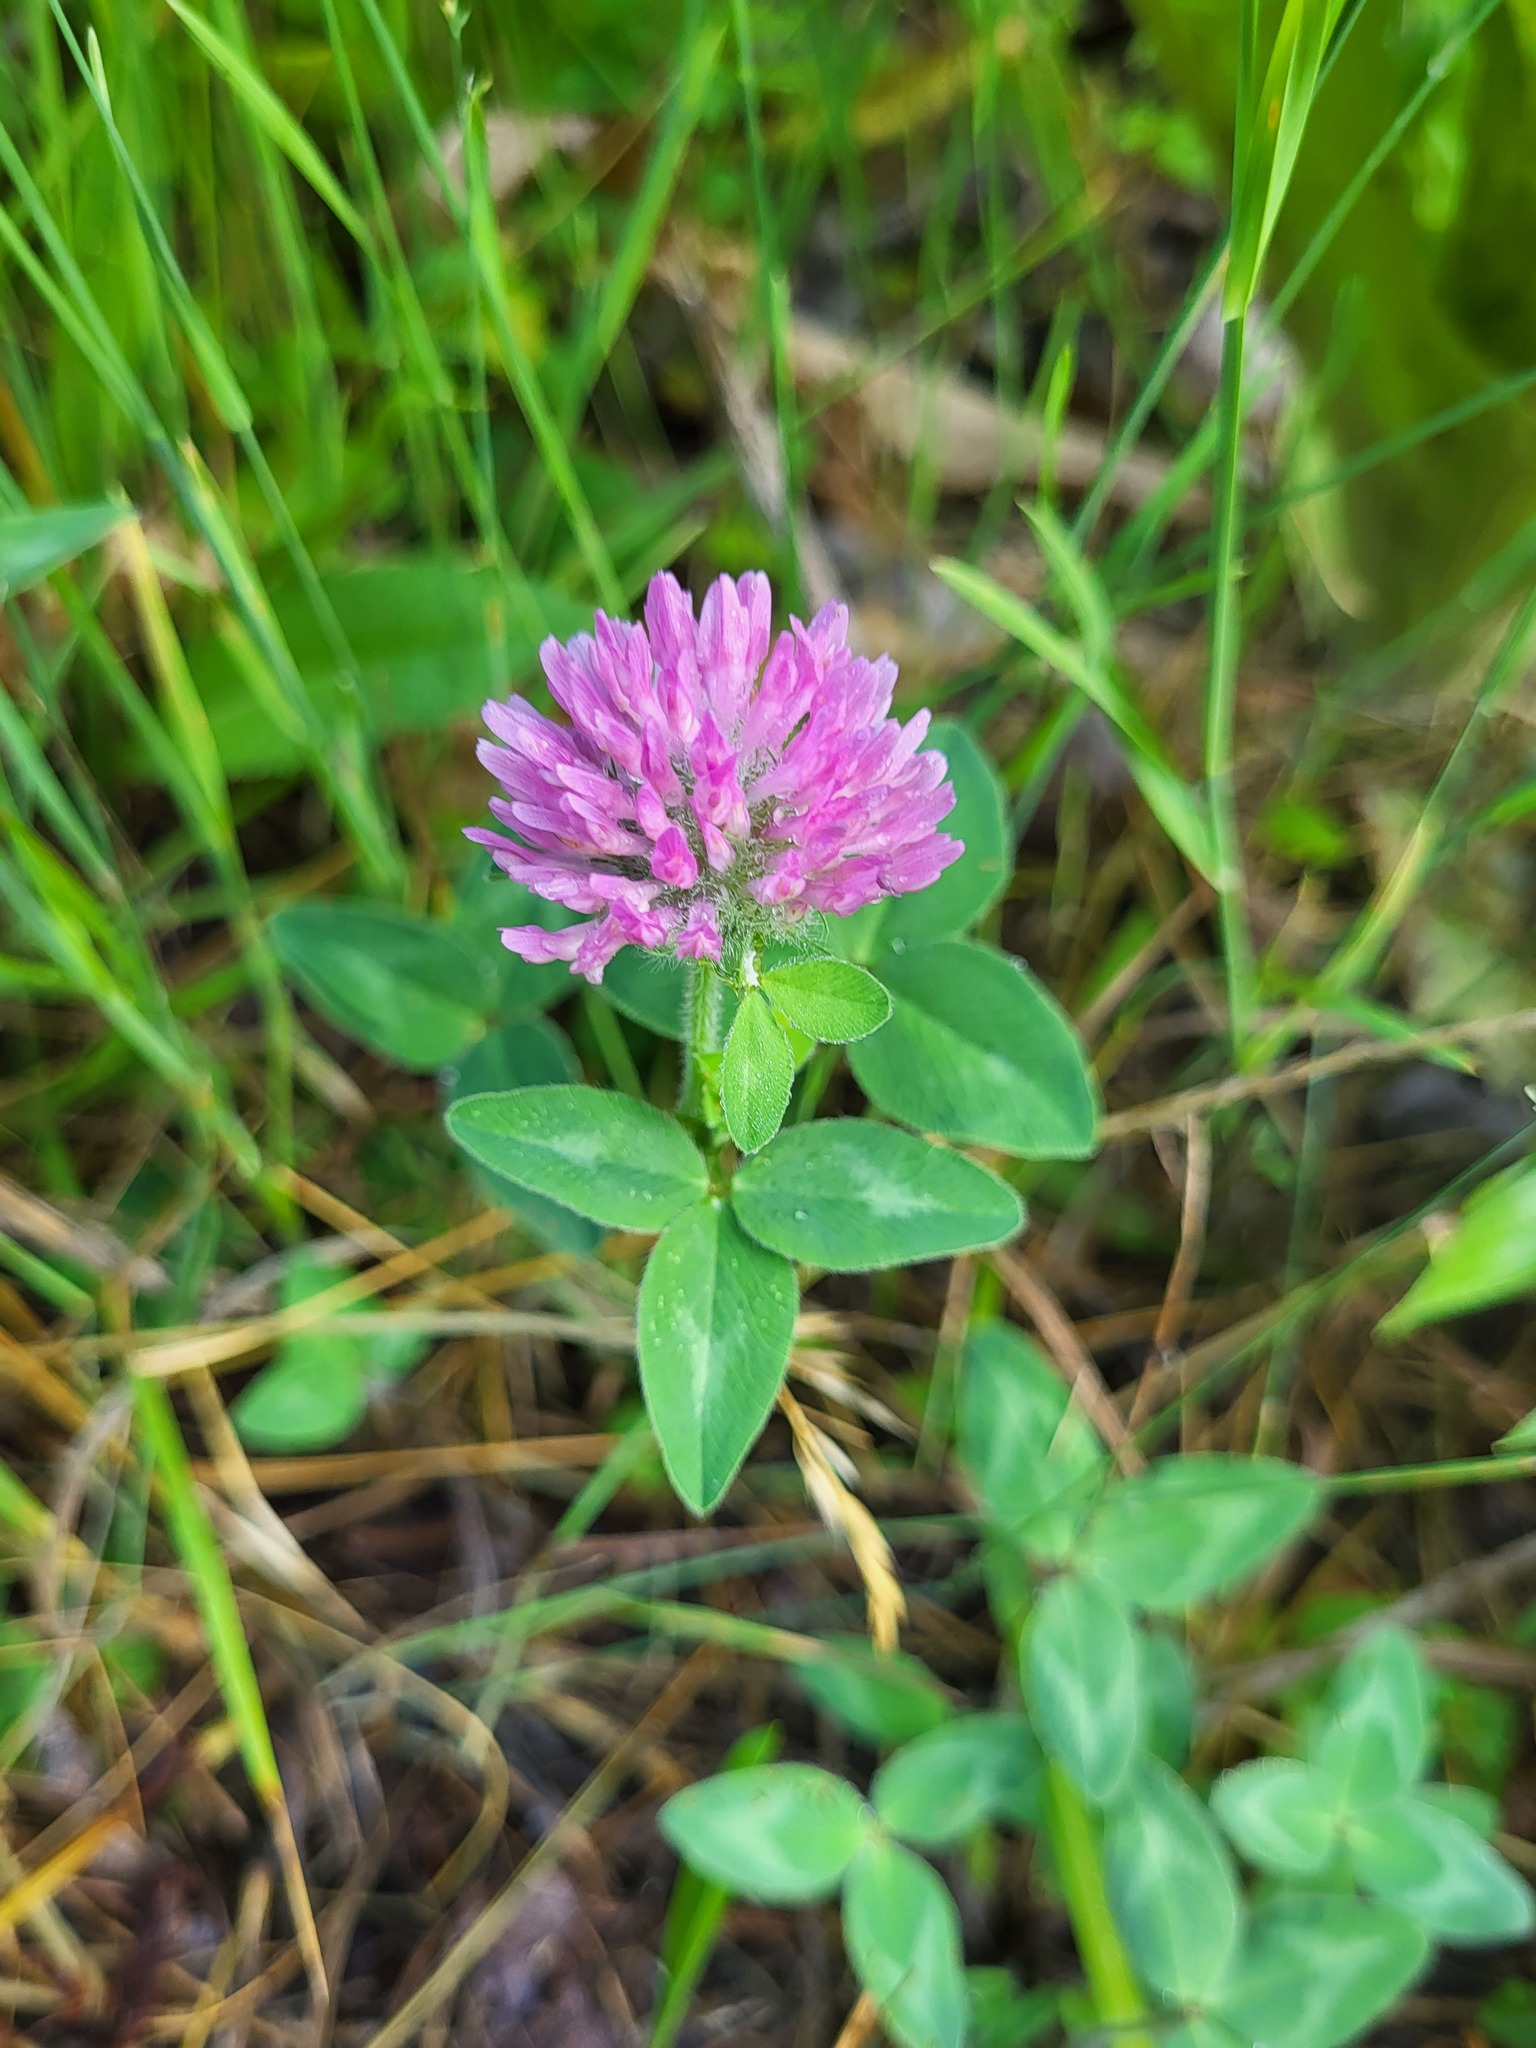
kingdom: Plantae
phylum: Tracheophyta
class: Magnoliopsida
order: Fabales
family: Fabaceae
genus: Trifolium
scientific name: Trifolium pratense
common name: Red clover
